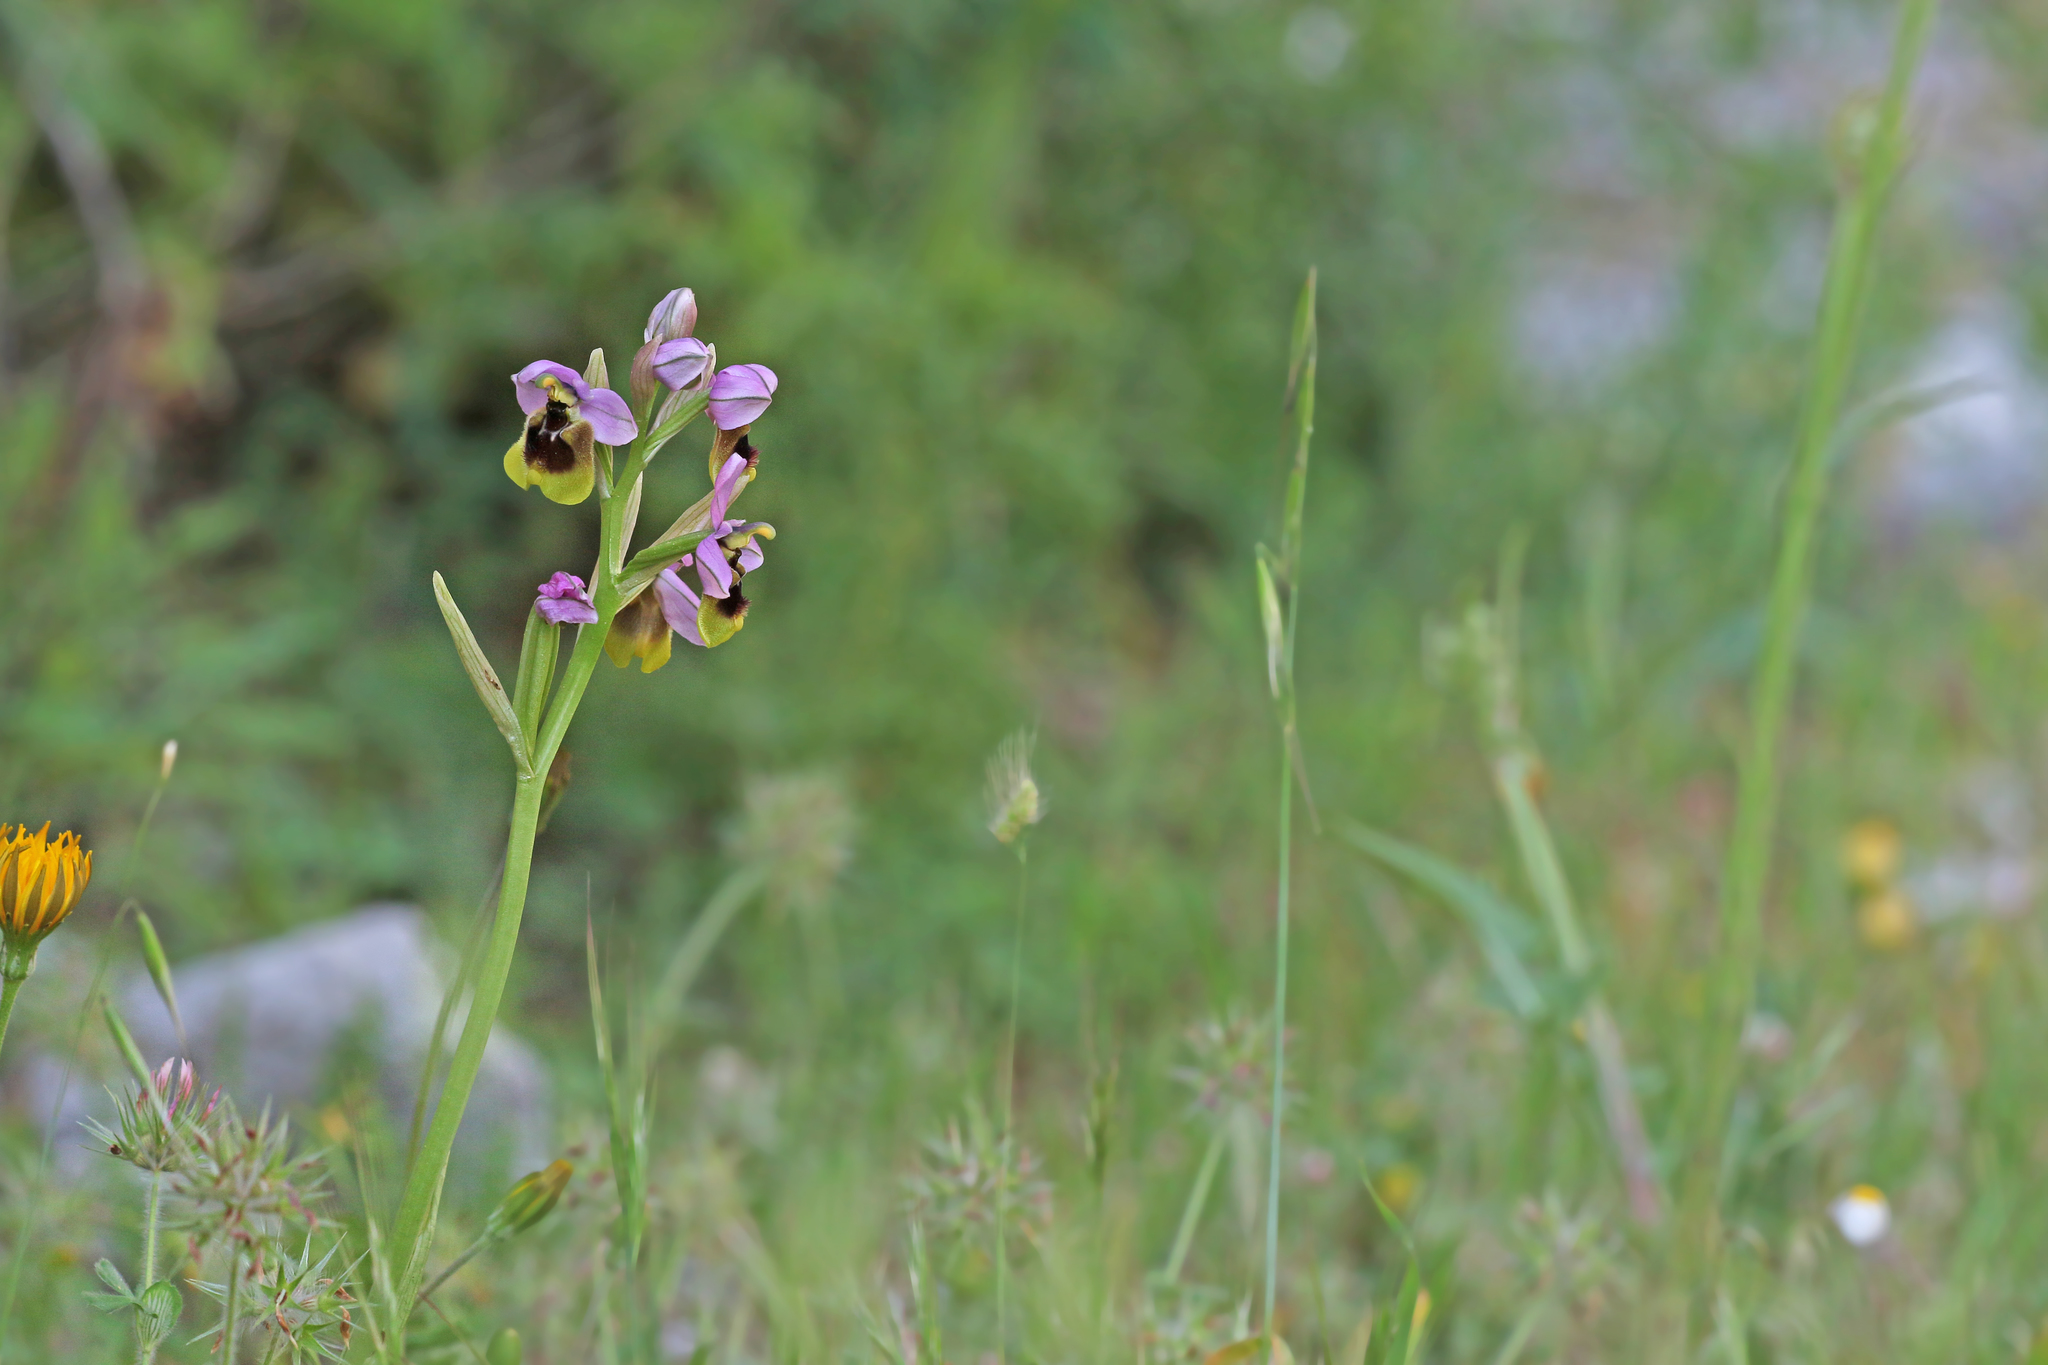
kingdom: Plantae
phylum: Tracheophyta
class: Liliopsida
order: Asparagales
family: Orchidaceae
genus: Ophrys
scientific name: Ophrys tenthredinifera
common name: Sawfly orchid
